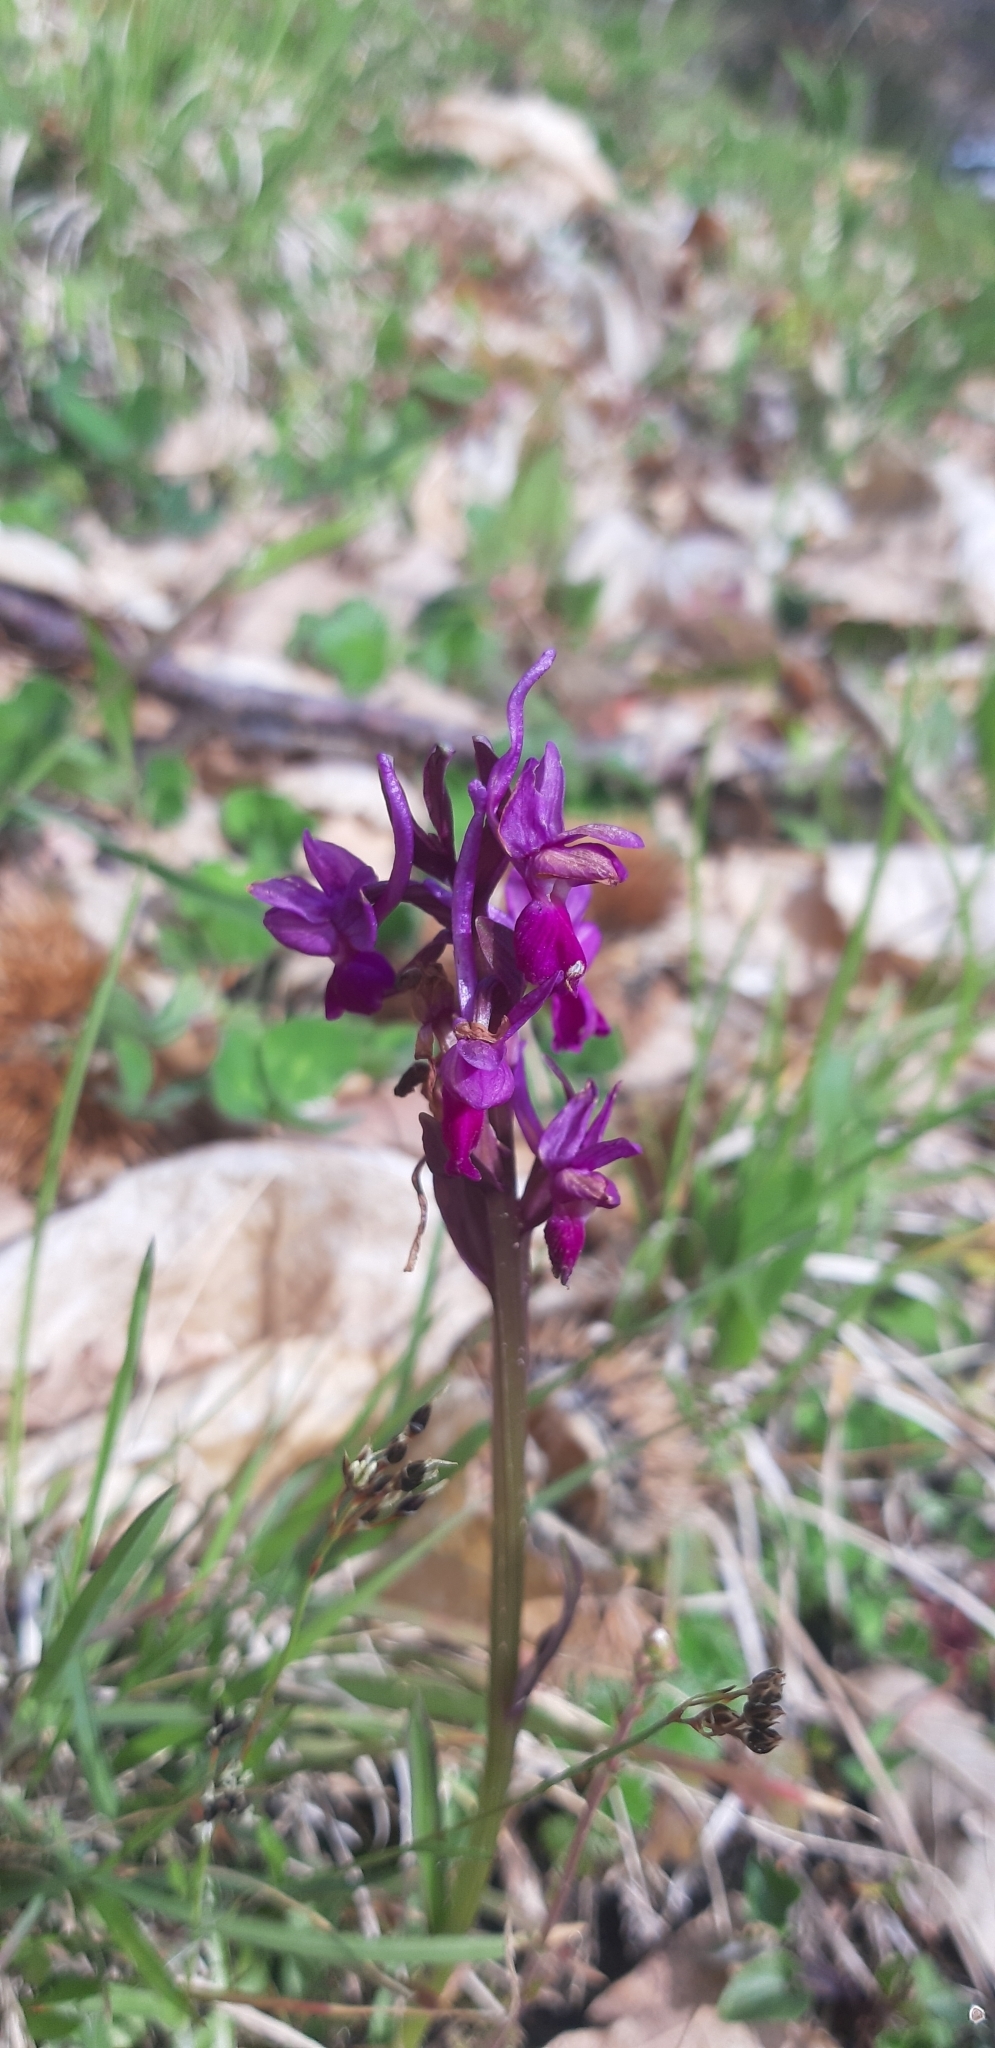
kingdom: Plantae
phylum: Tracheophyta
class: Liliopsida
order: Asparagales
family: Orchidaceae
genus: Dactylorhiza
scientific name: Dactylorhiza romana
